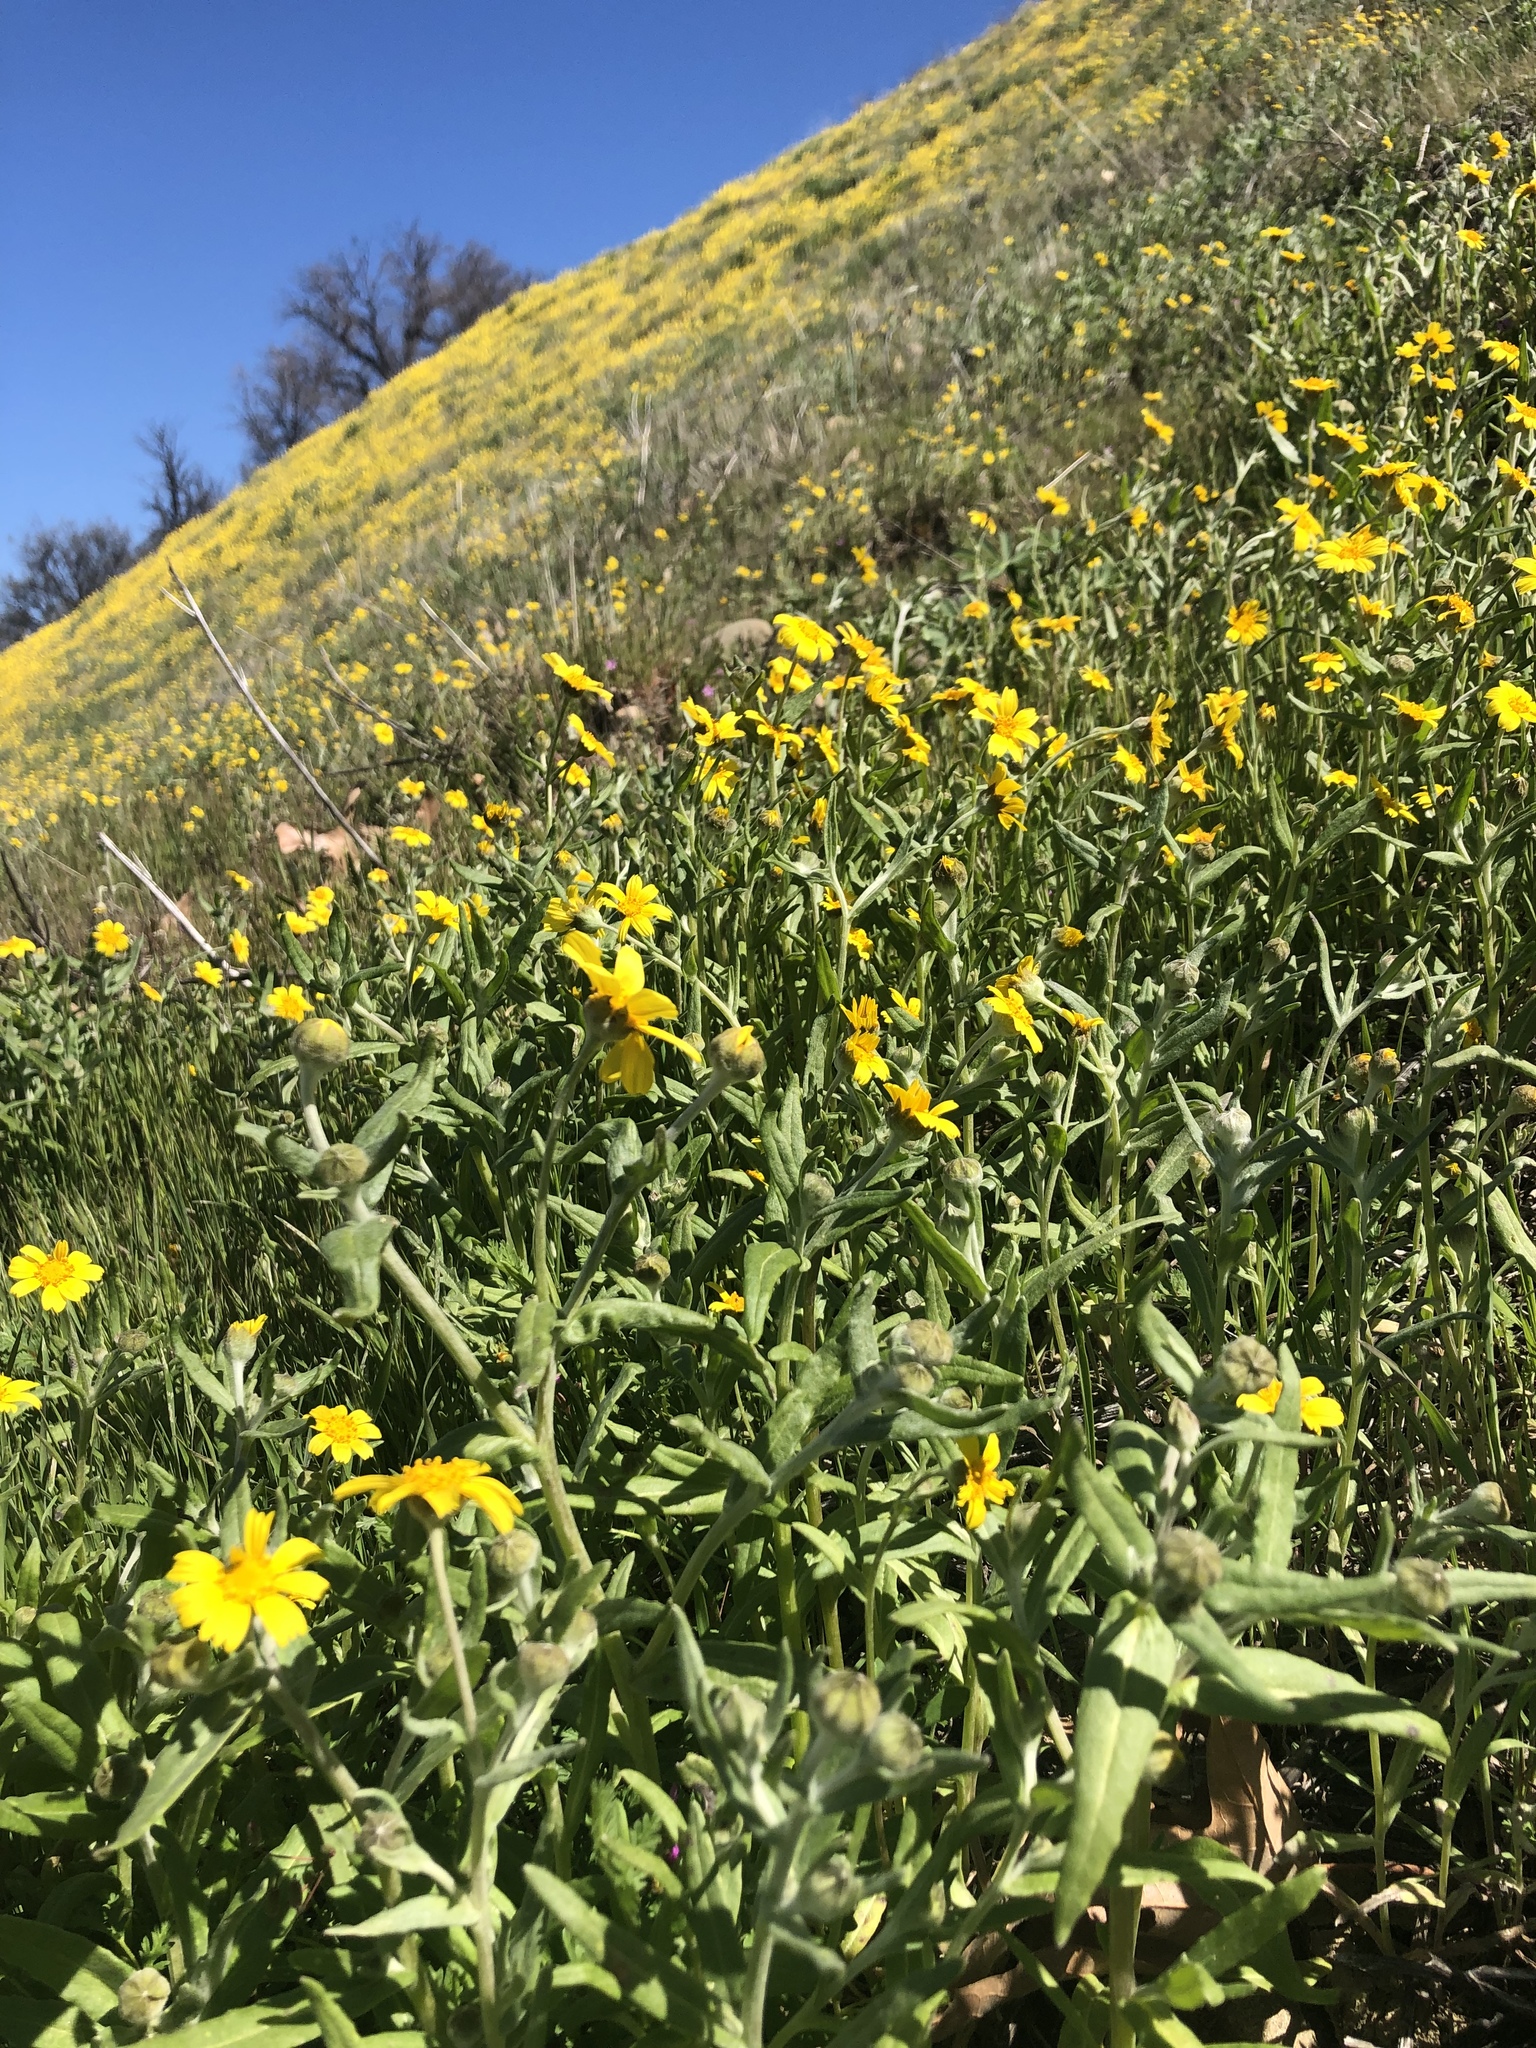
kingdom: Plantae
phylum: Tracheophyta
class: Magnoliopsida
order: Asterales
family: Asteraceae
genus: Monolopia
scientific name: Monolopia lanceolata
